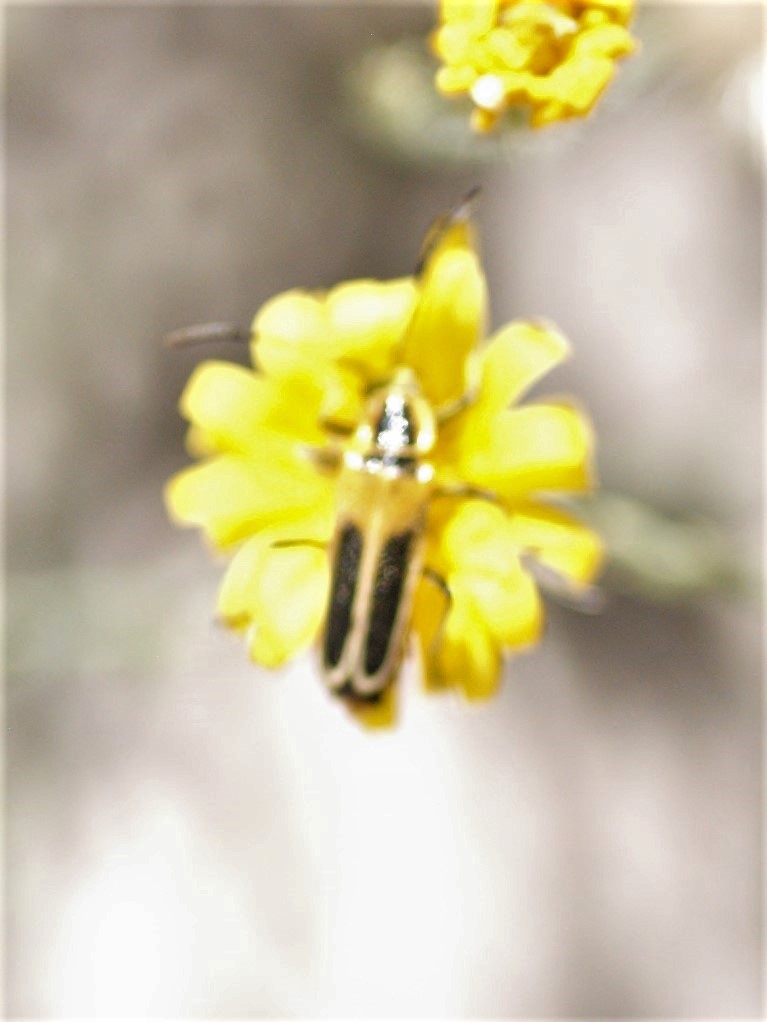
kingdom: Animalia
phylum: Arthropoda
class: Insecta
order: Coleoptera
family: Cantharidae
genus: Chauliognathus
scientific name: Chauliognathus lewisi
